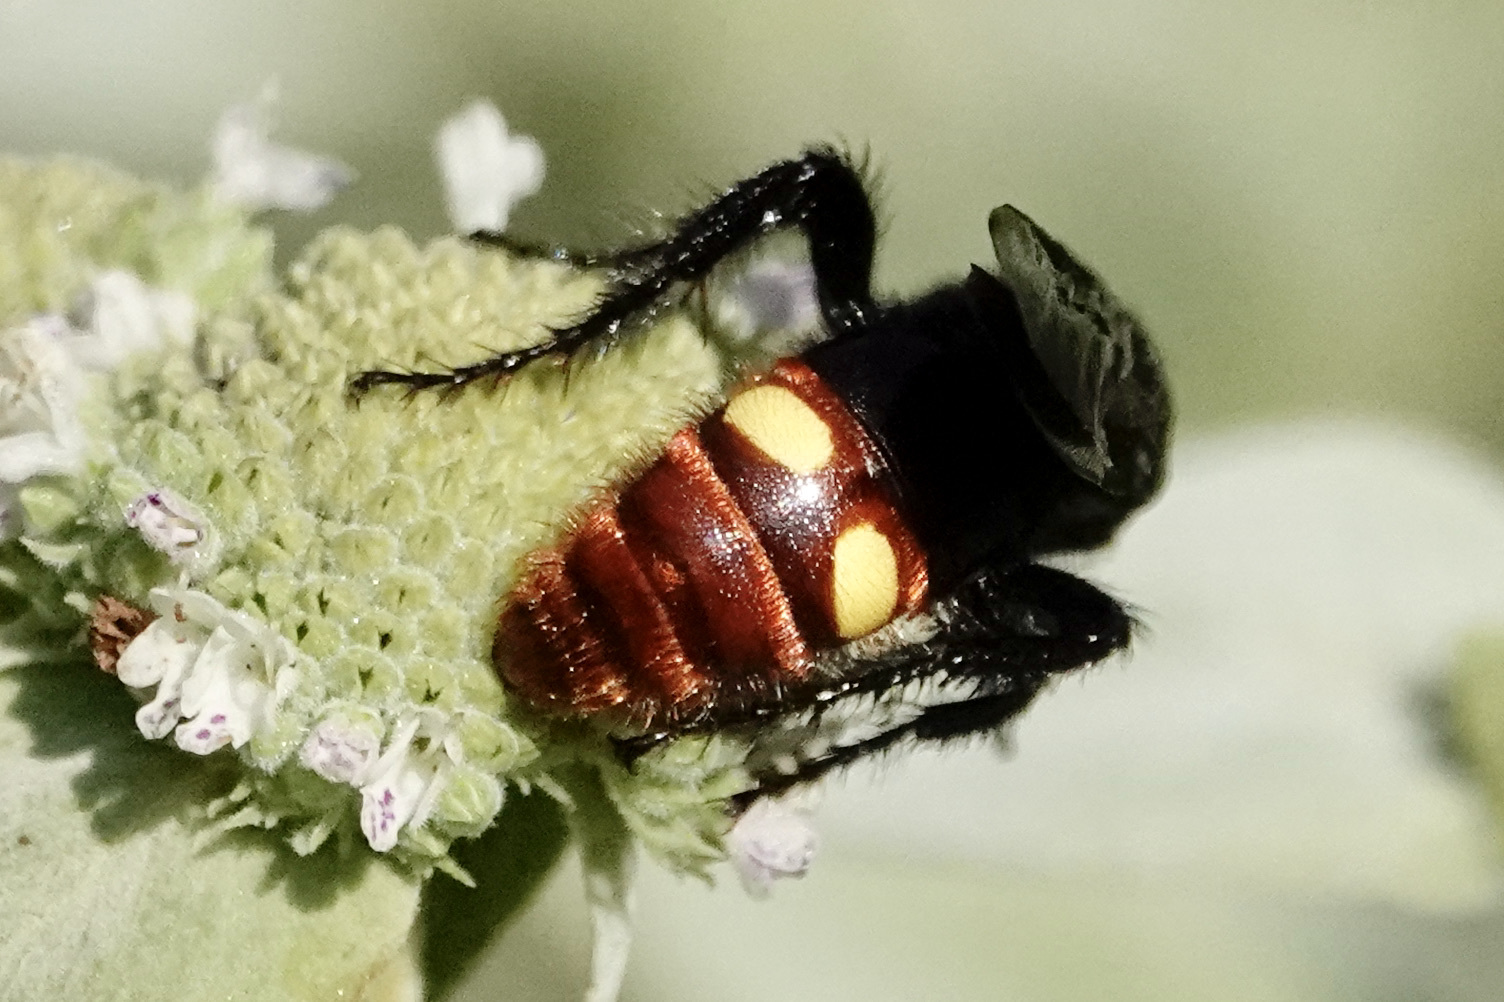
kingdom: Animalia
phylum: Arthropoda
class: Insecta
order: Hymenoptera
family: Scoliidae
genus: Scolia
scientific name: Scolia dubia
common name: Blue-winged scoliid wasp
